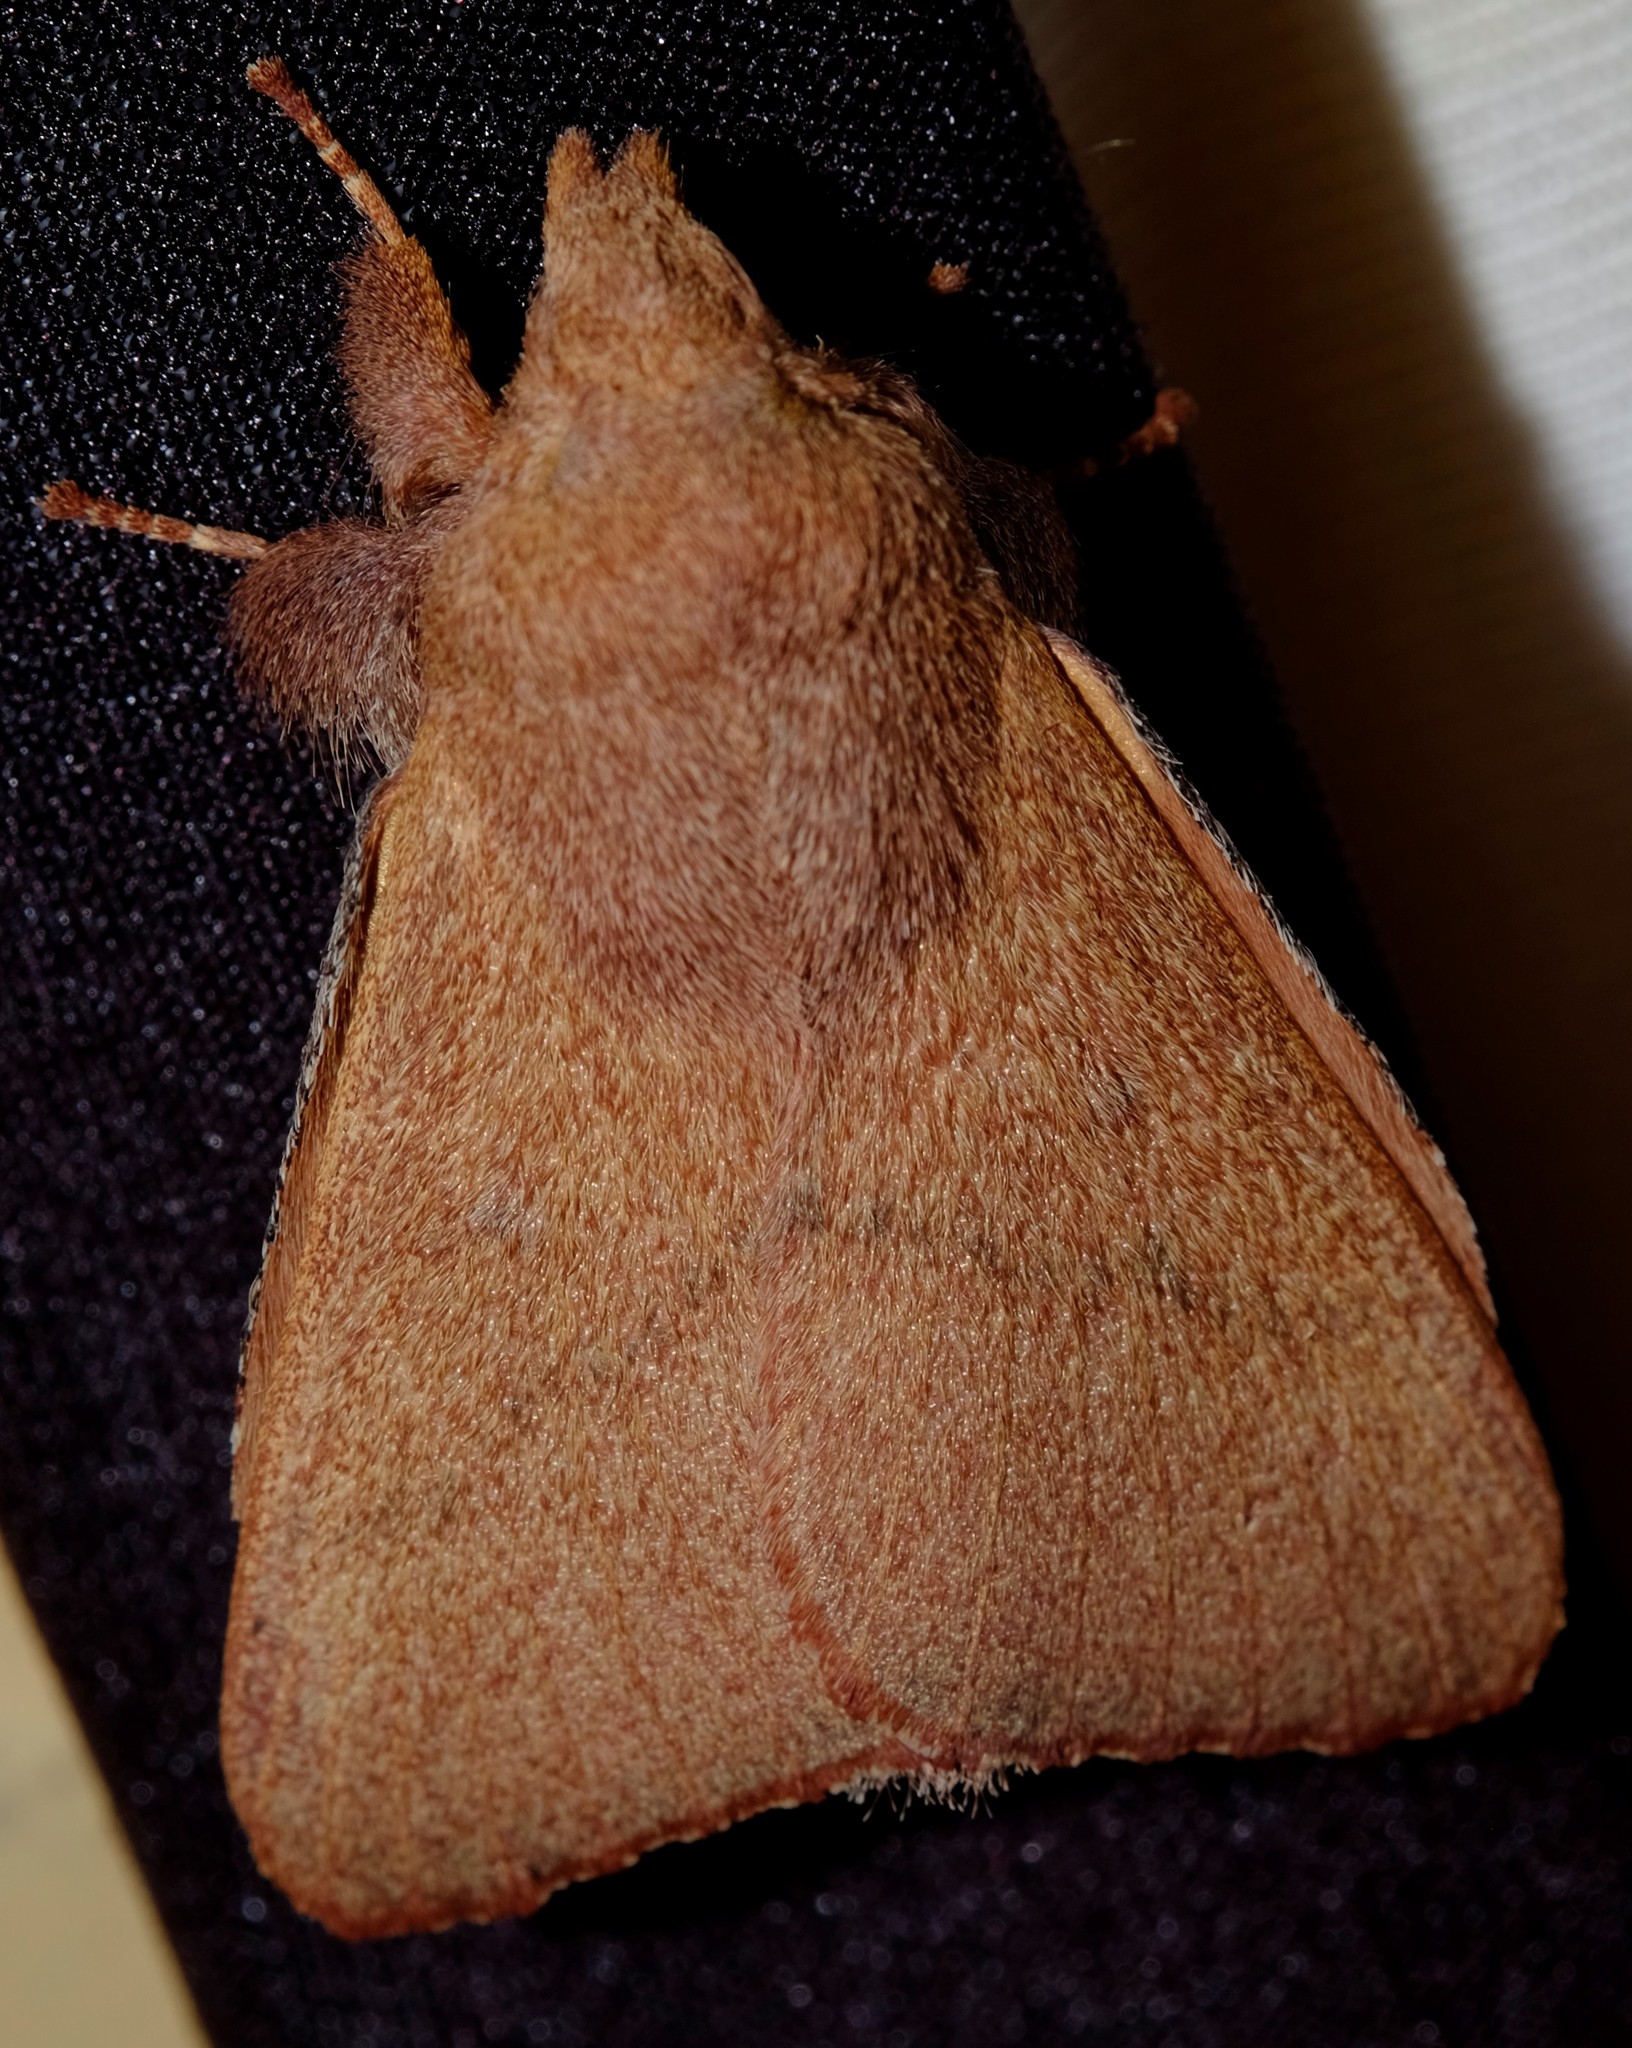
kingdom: Animalia
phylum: Arthropoda
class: Insecta
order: Lepidoptera
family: Lasiocampidae
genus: Pararguda
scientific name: Pararguda
